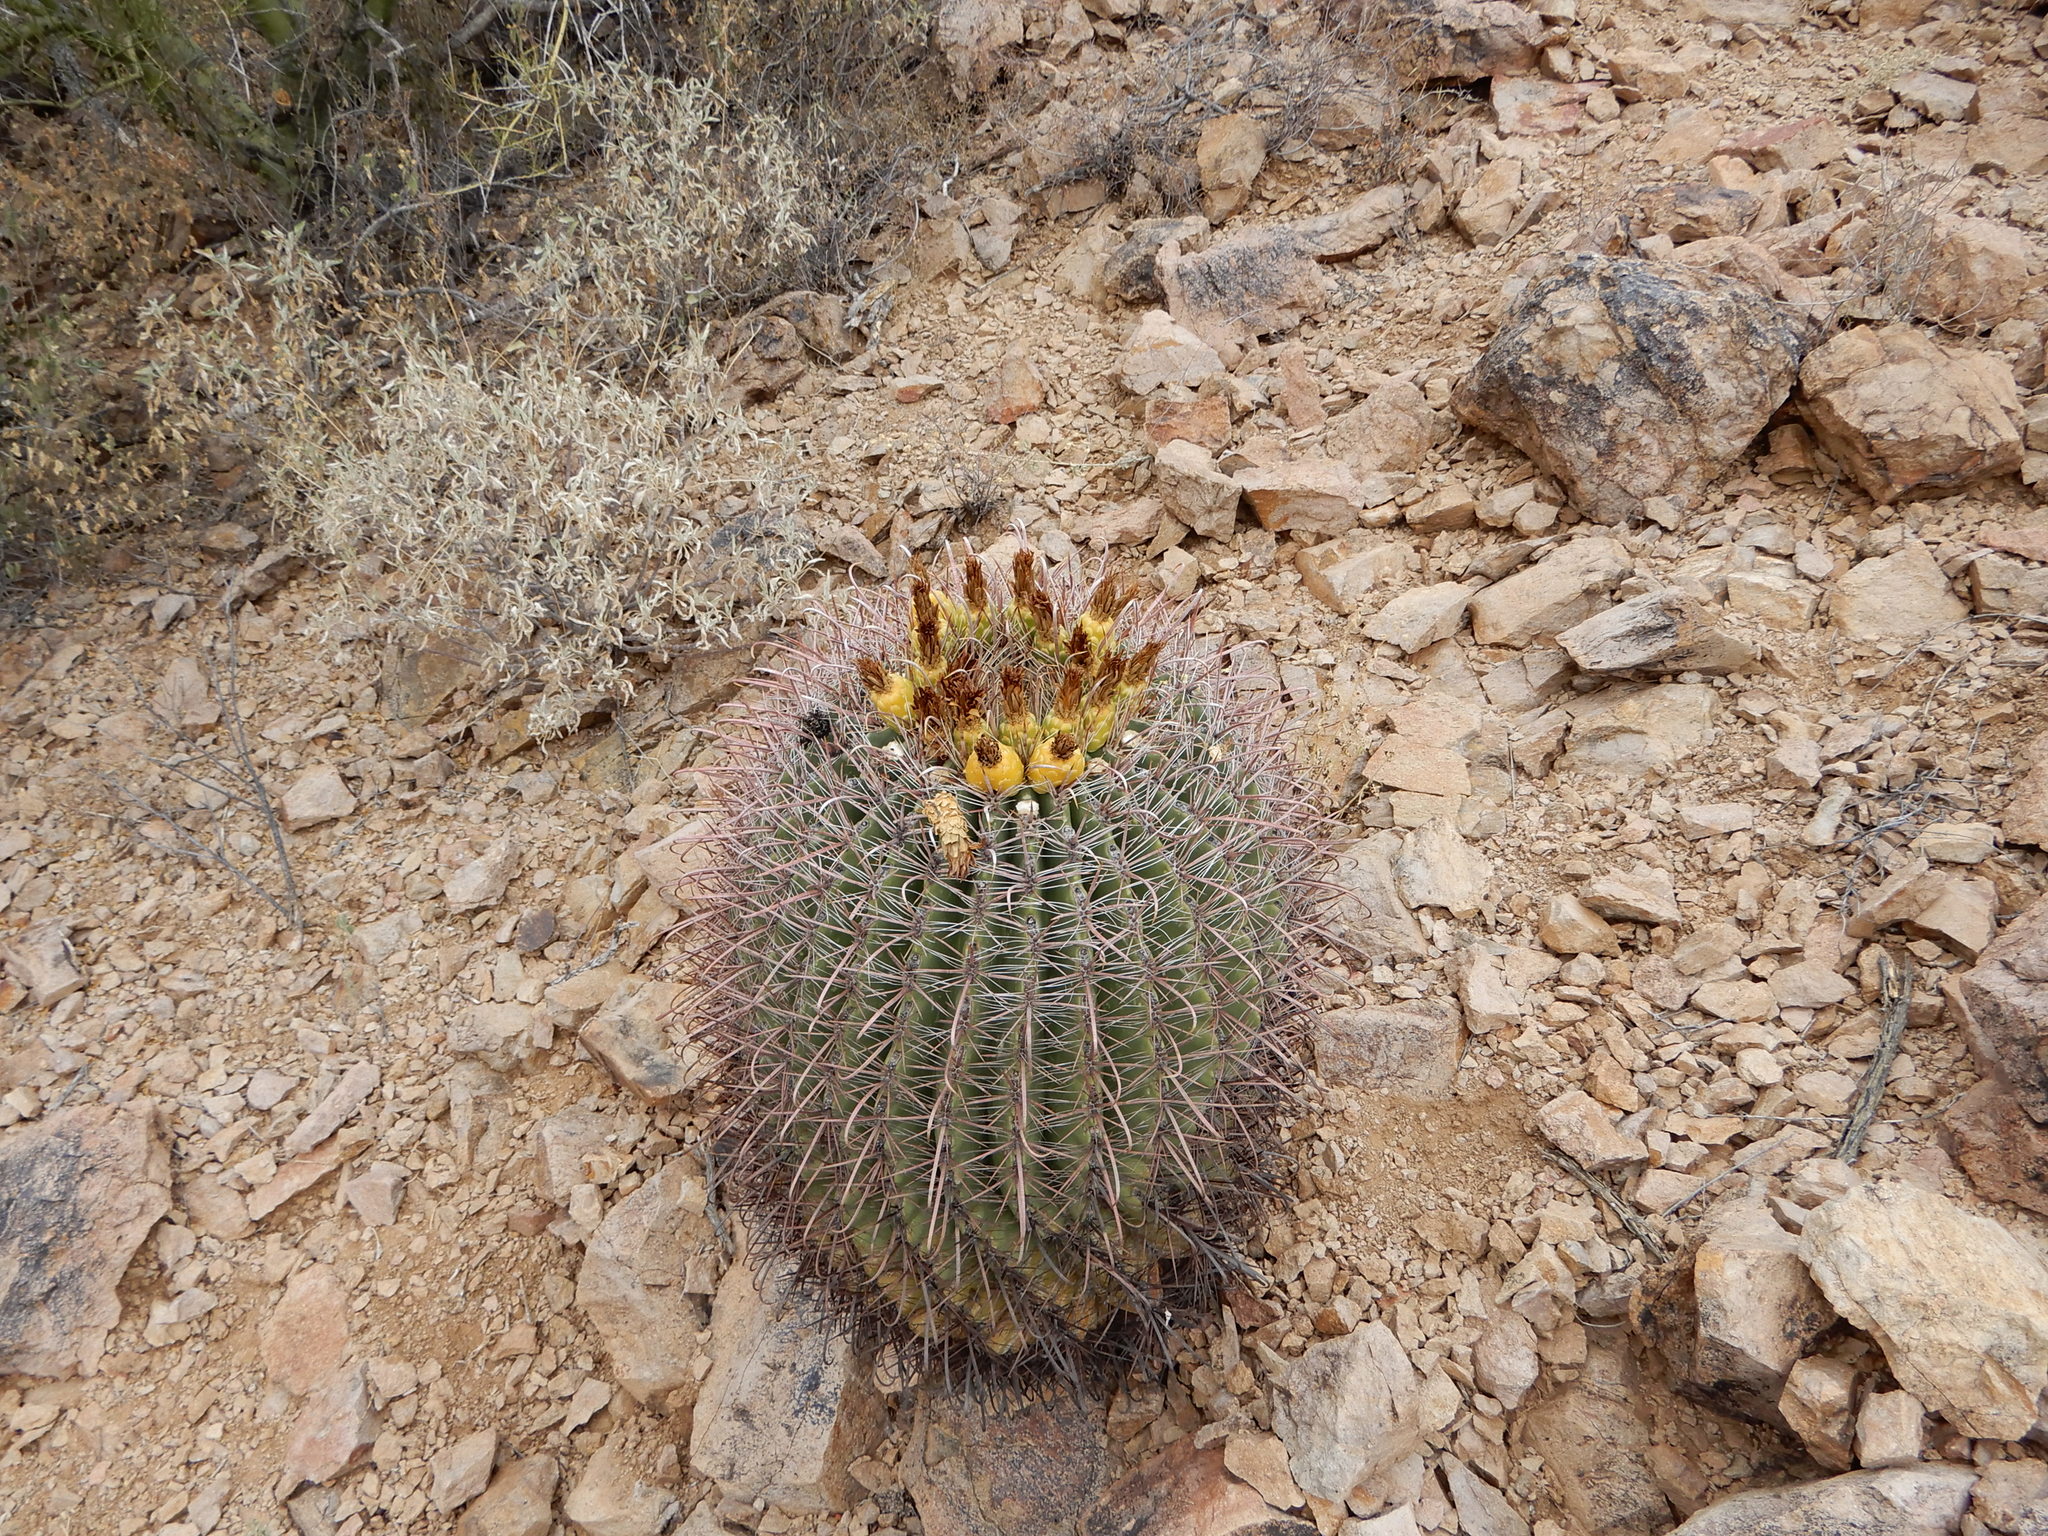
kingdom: Plantae
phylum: Tracheophyta
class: Magnoliopsida
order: Caryophyllales
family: Cactaceae
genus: Ferocactus
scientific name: Ferocactus wislizeni
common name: Candy barrel cactus
